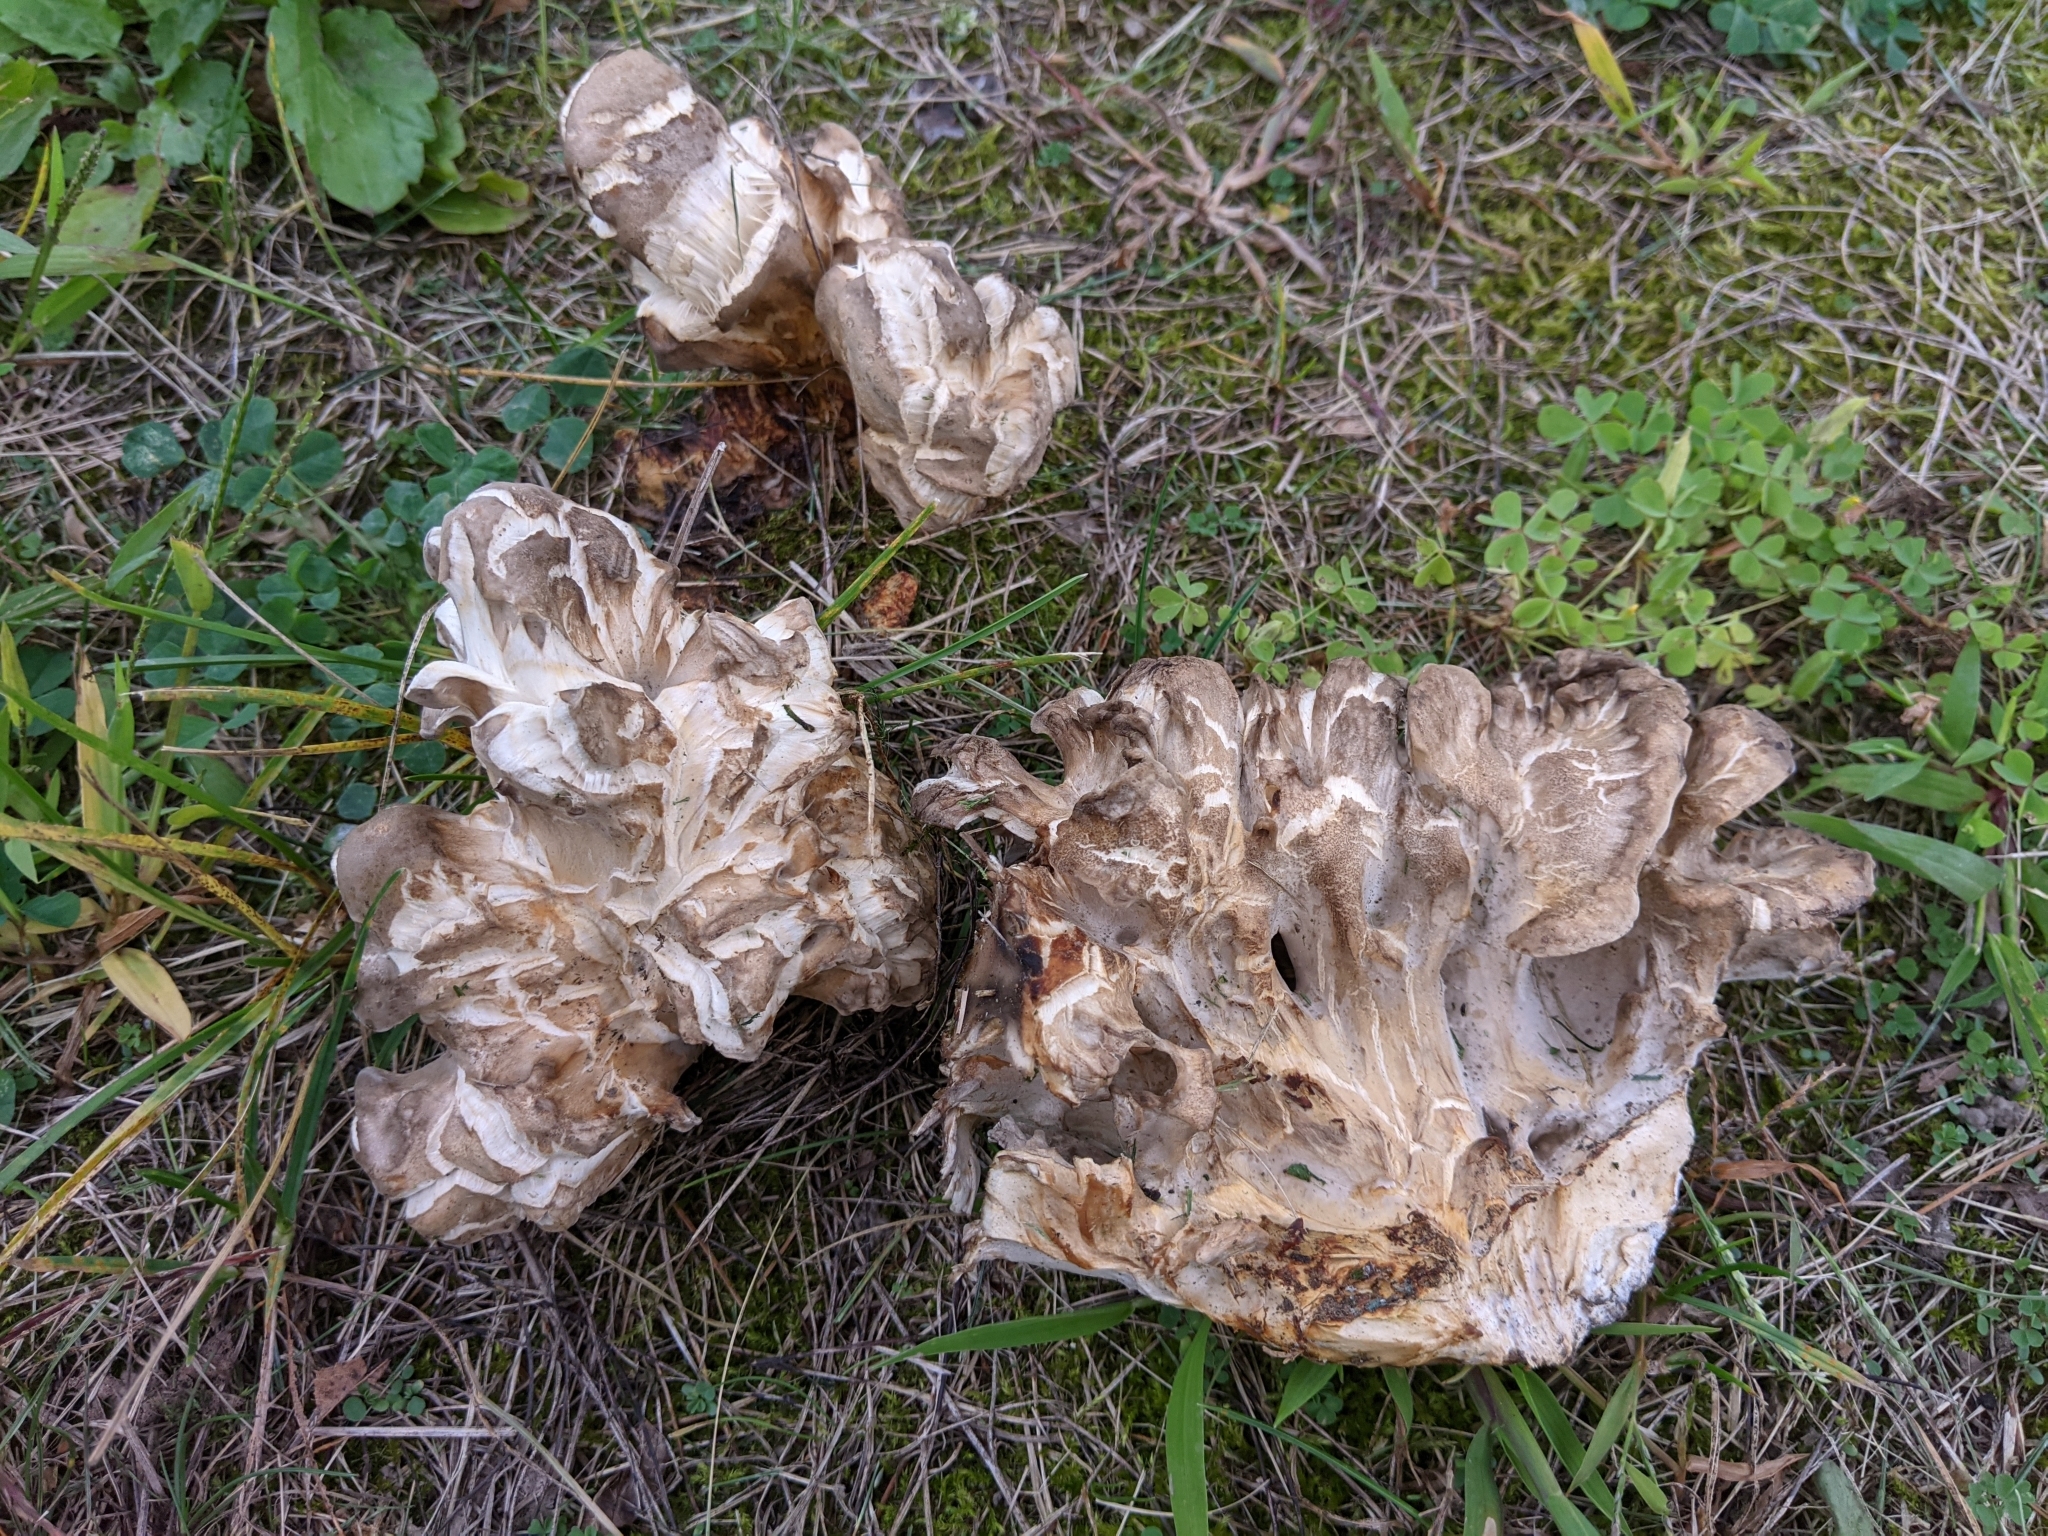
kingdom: Fungi
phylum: Basidiomycota
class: Agaricomycetes
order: Polyporales
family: Grifolaceae
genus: Grifola
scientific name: Grifola frondosa
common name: Hen of the woods
